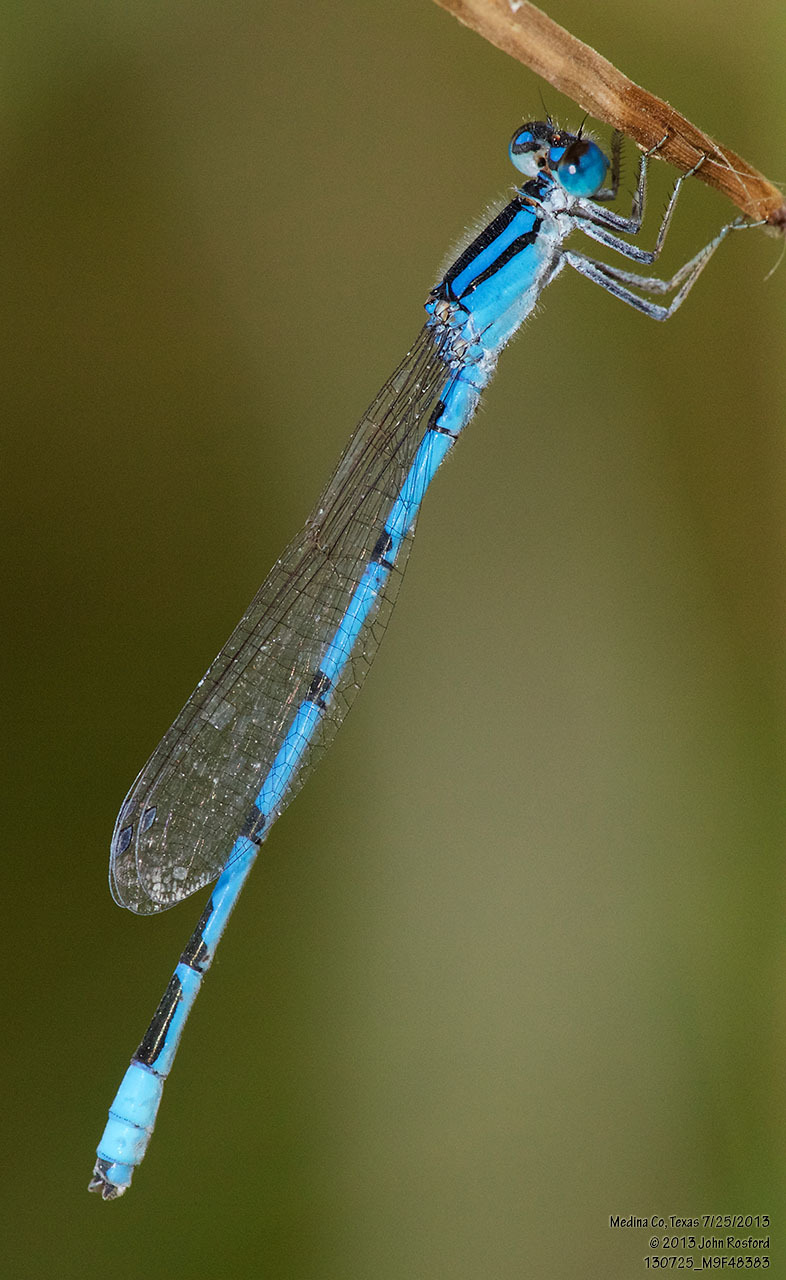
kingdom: Animalia
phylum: Arthropoda
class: Insecta
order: Odonata
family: Coenagrionidae
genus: Enallagma
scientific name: Enallagma civile
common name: Damselfly
